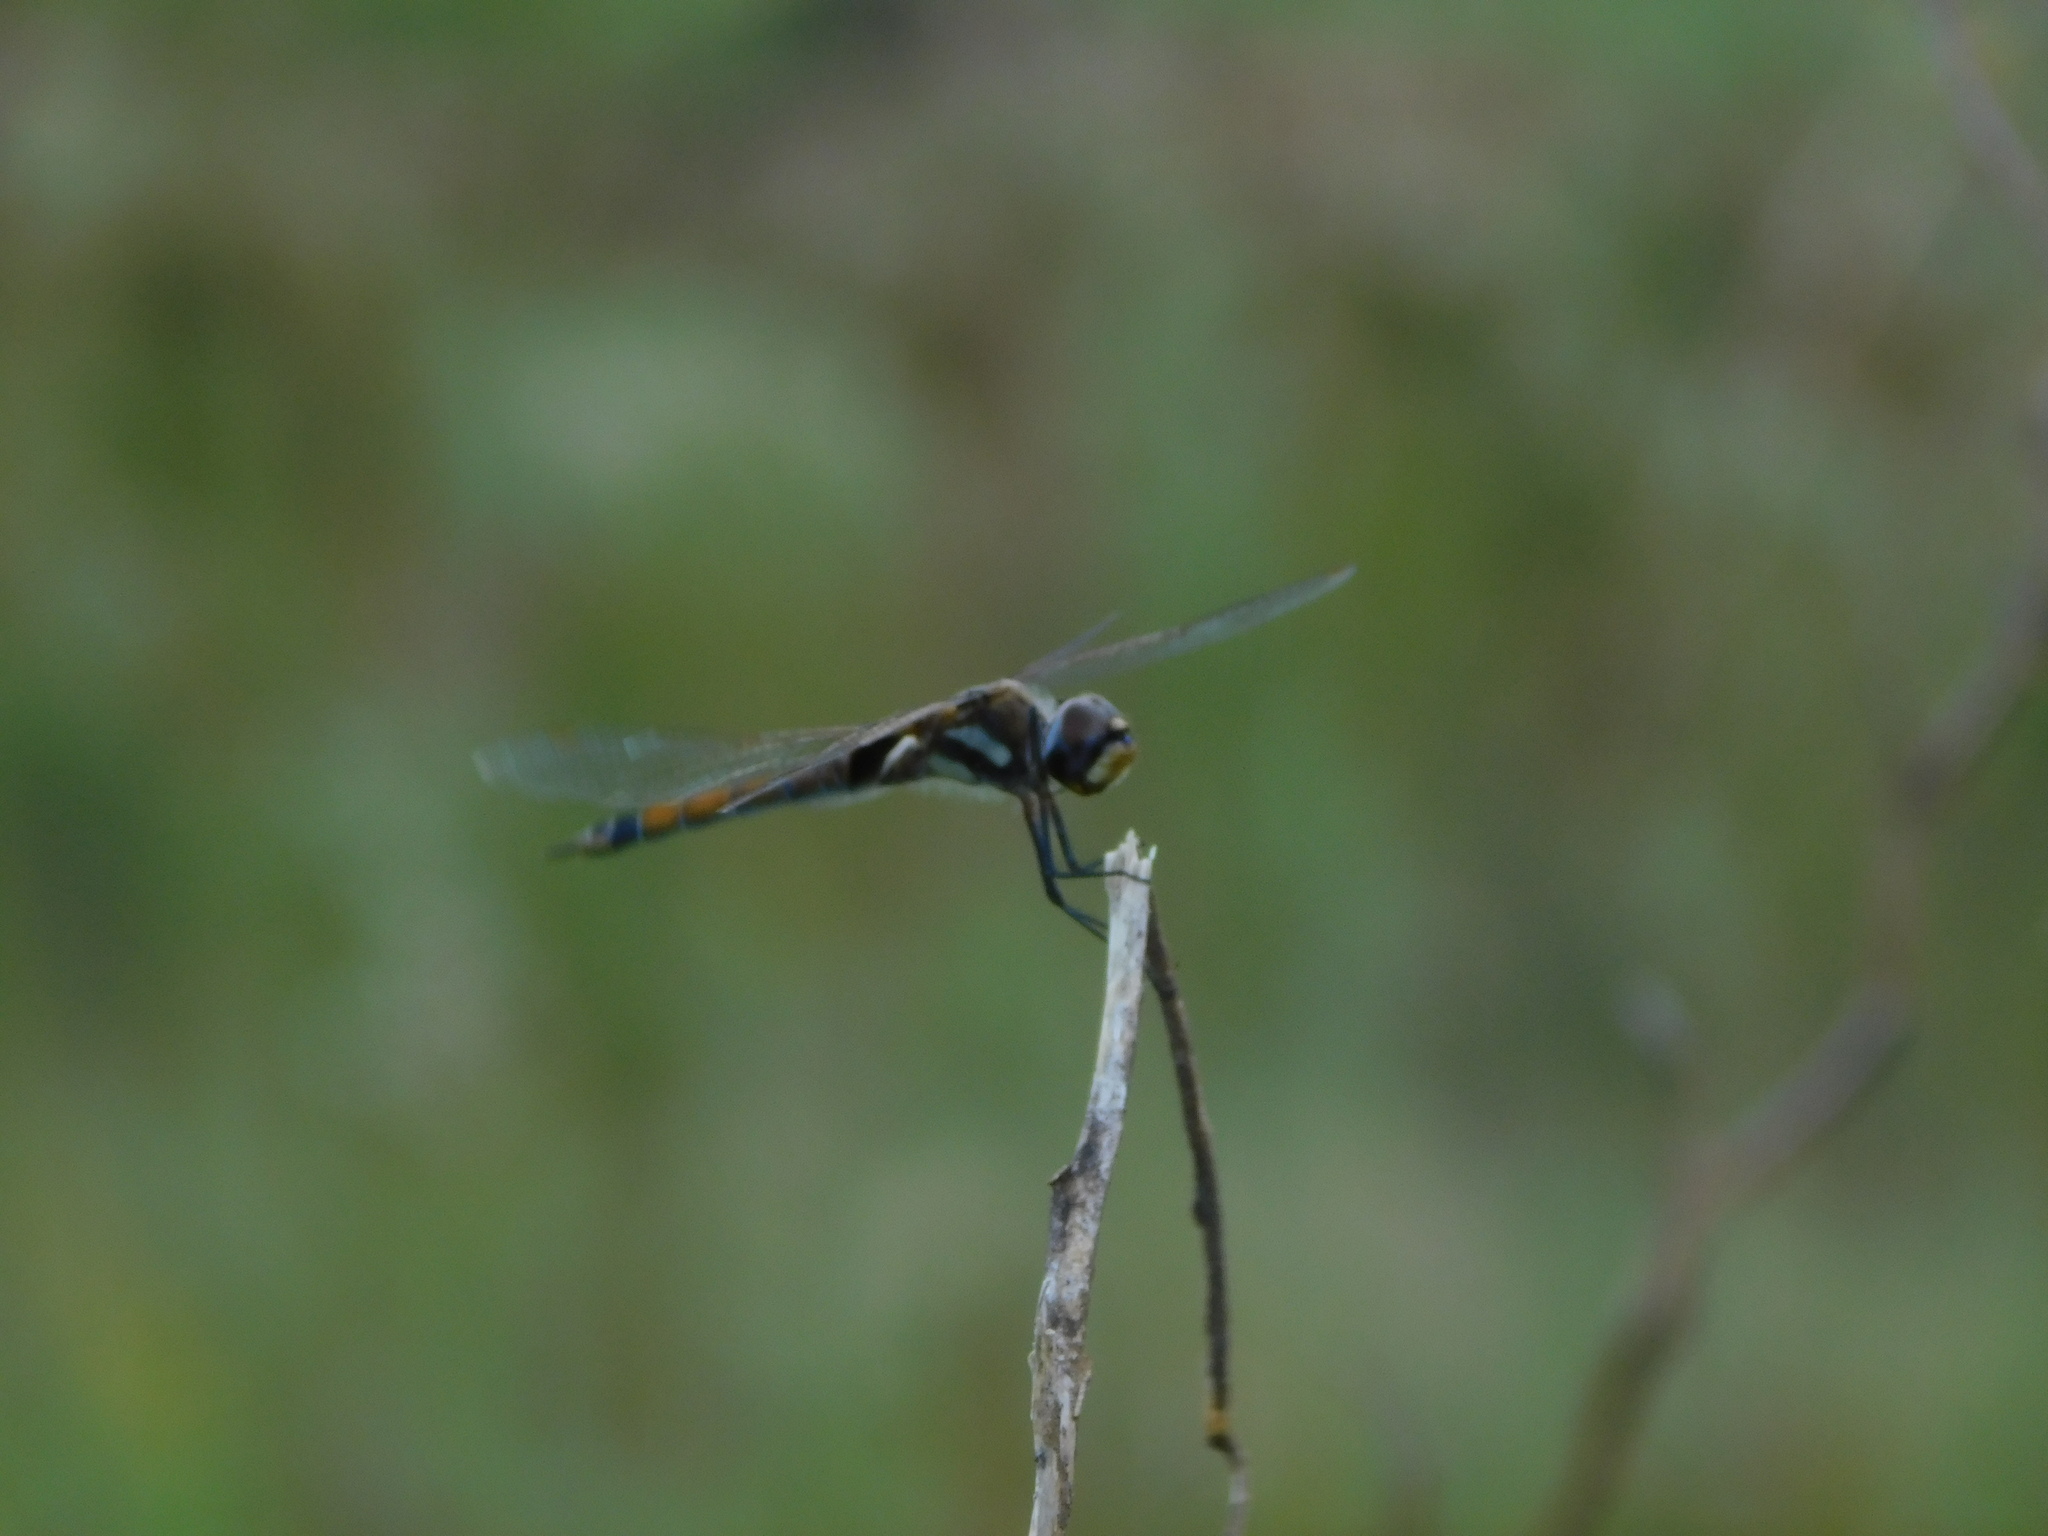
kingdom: Animalia
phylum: Arthropoda
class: Insecta
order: Odonata
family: Libellulidae
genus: Tramea
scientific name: Tramea cophysa
